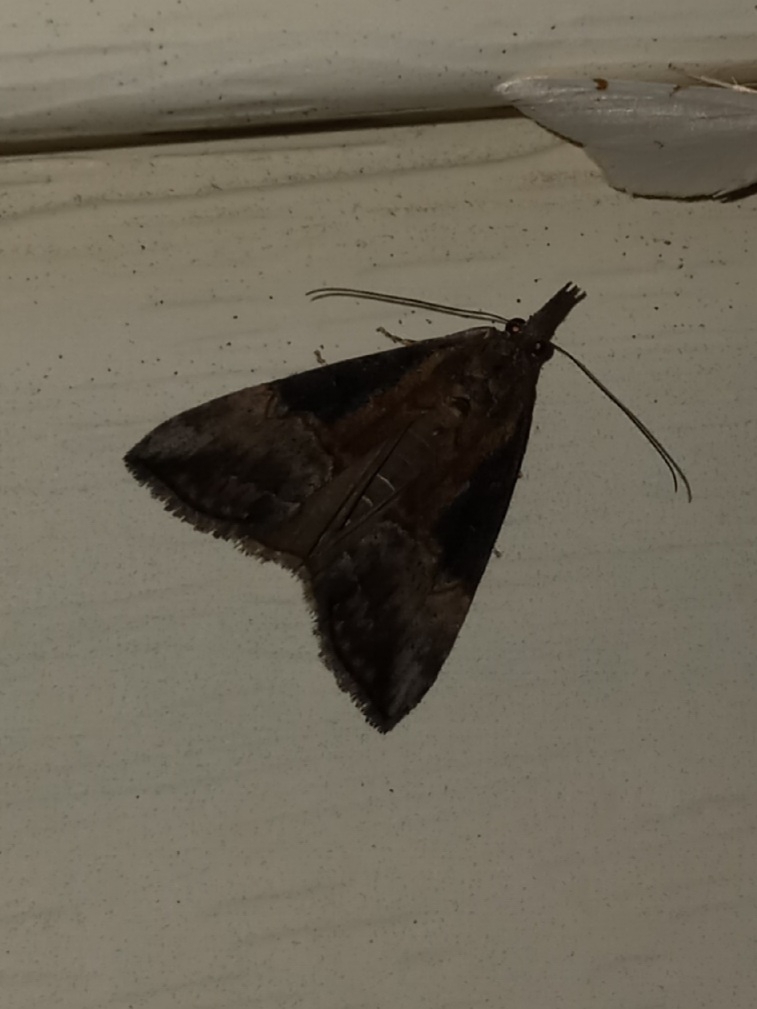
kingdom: Animalia
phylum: Arthropoda
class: Insecta
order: Lepidoptera
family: Erebidae
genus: Hypena
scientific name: Hypena scabra
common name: Green cloverworm
